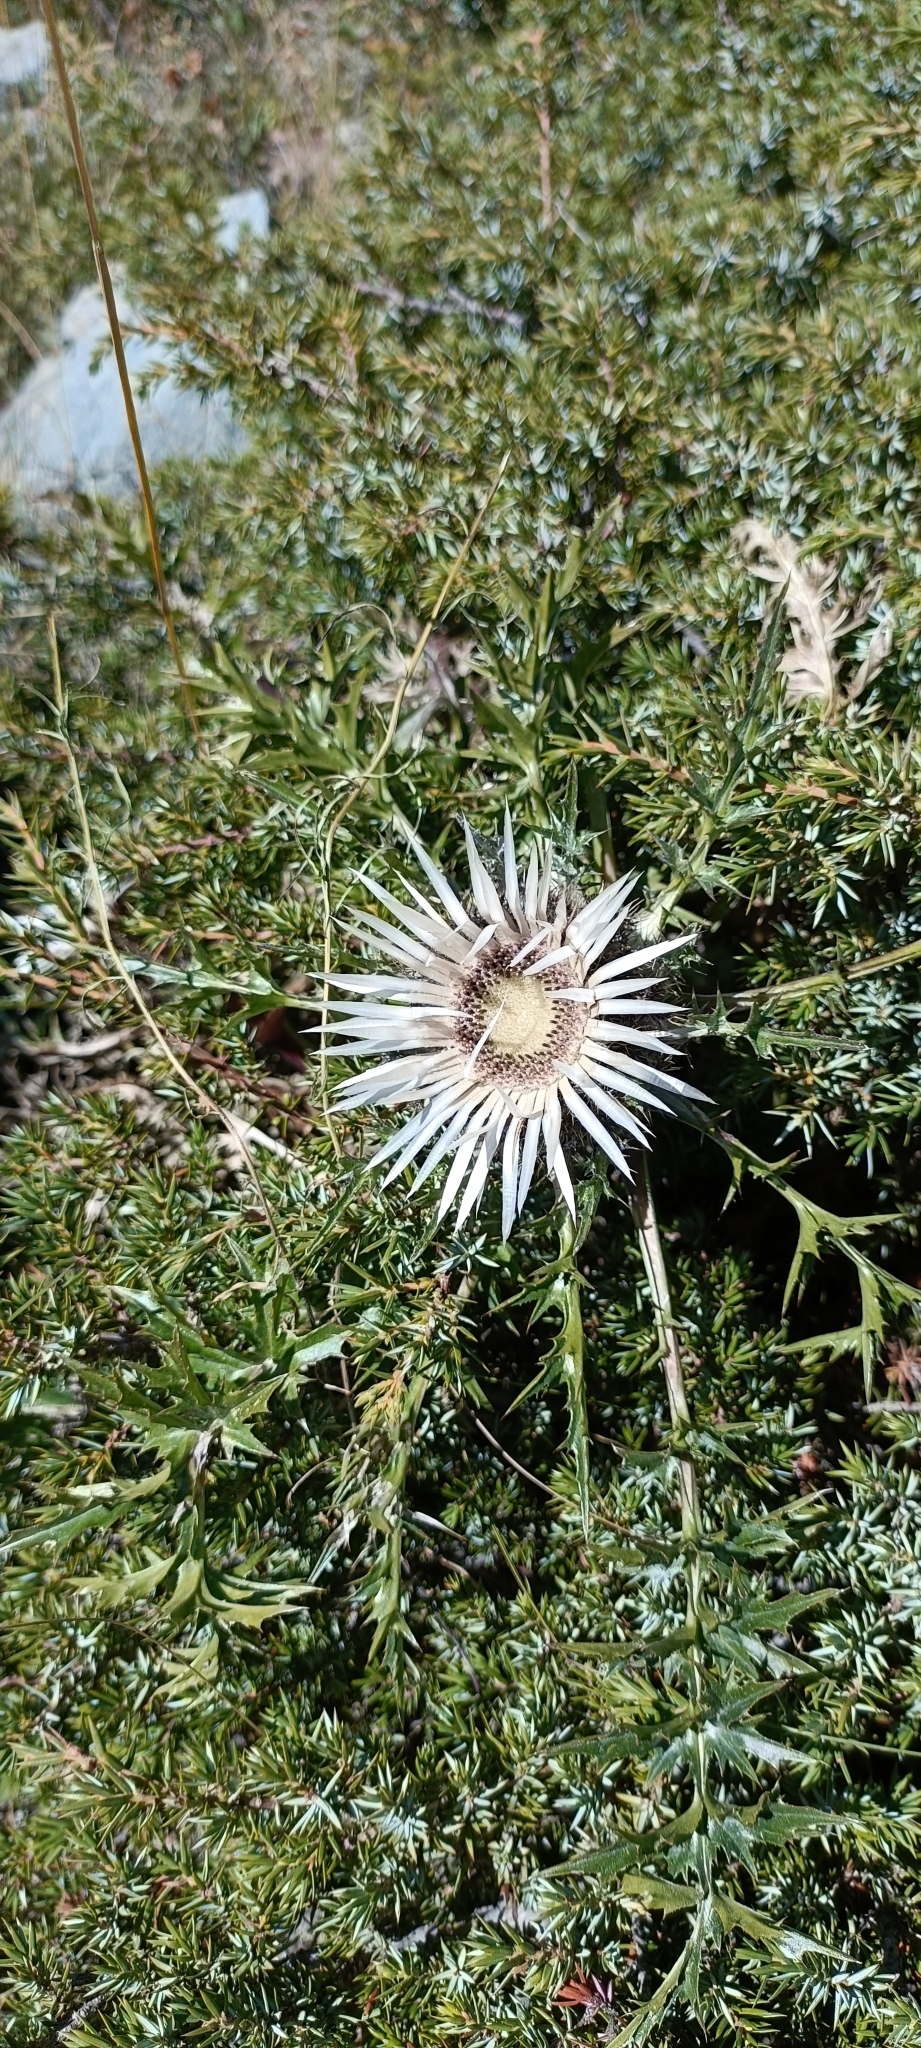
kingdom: Plantae
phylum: Tracheophyta
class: Magnoliopsida
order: Asterales
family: Asteraceae
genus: Carlina
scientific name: Carlina acaulis
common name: Stemless carline thistle
